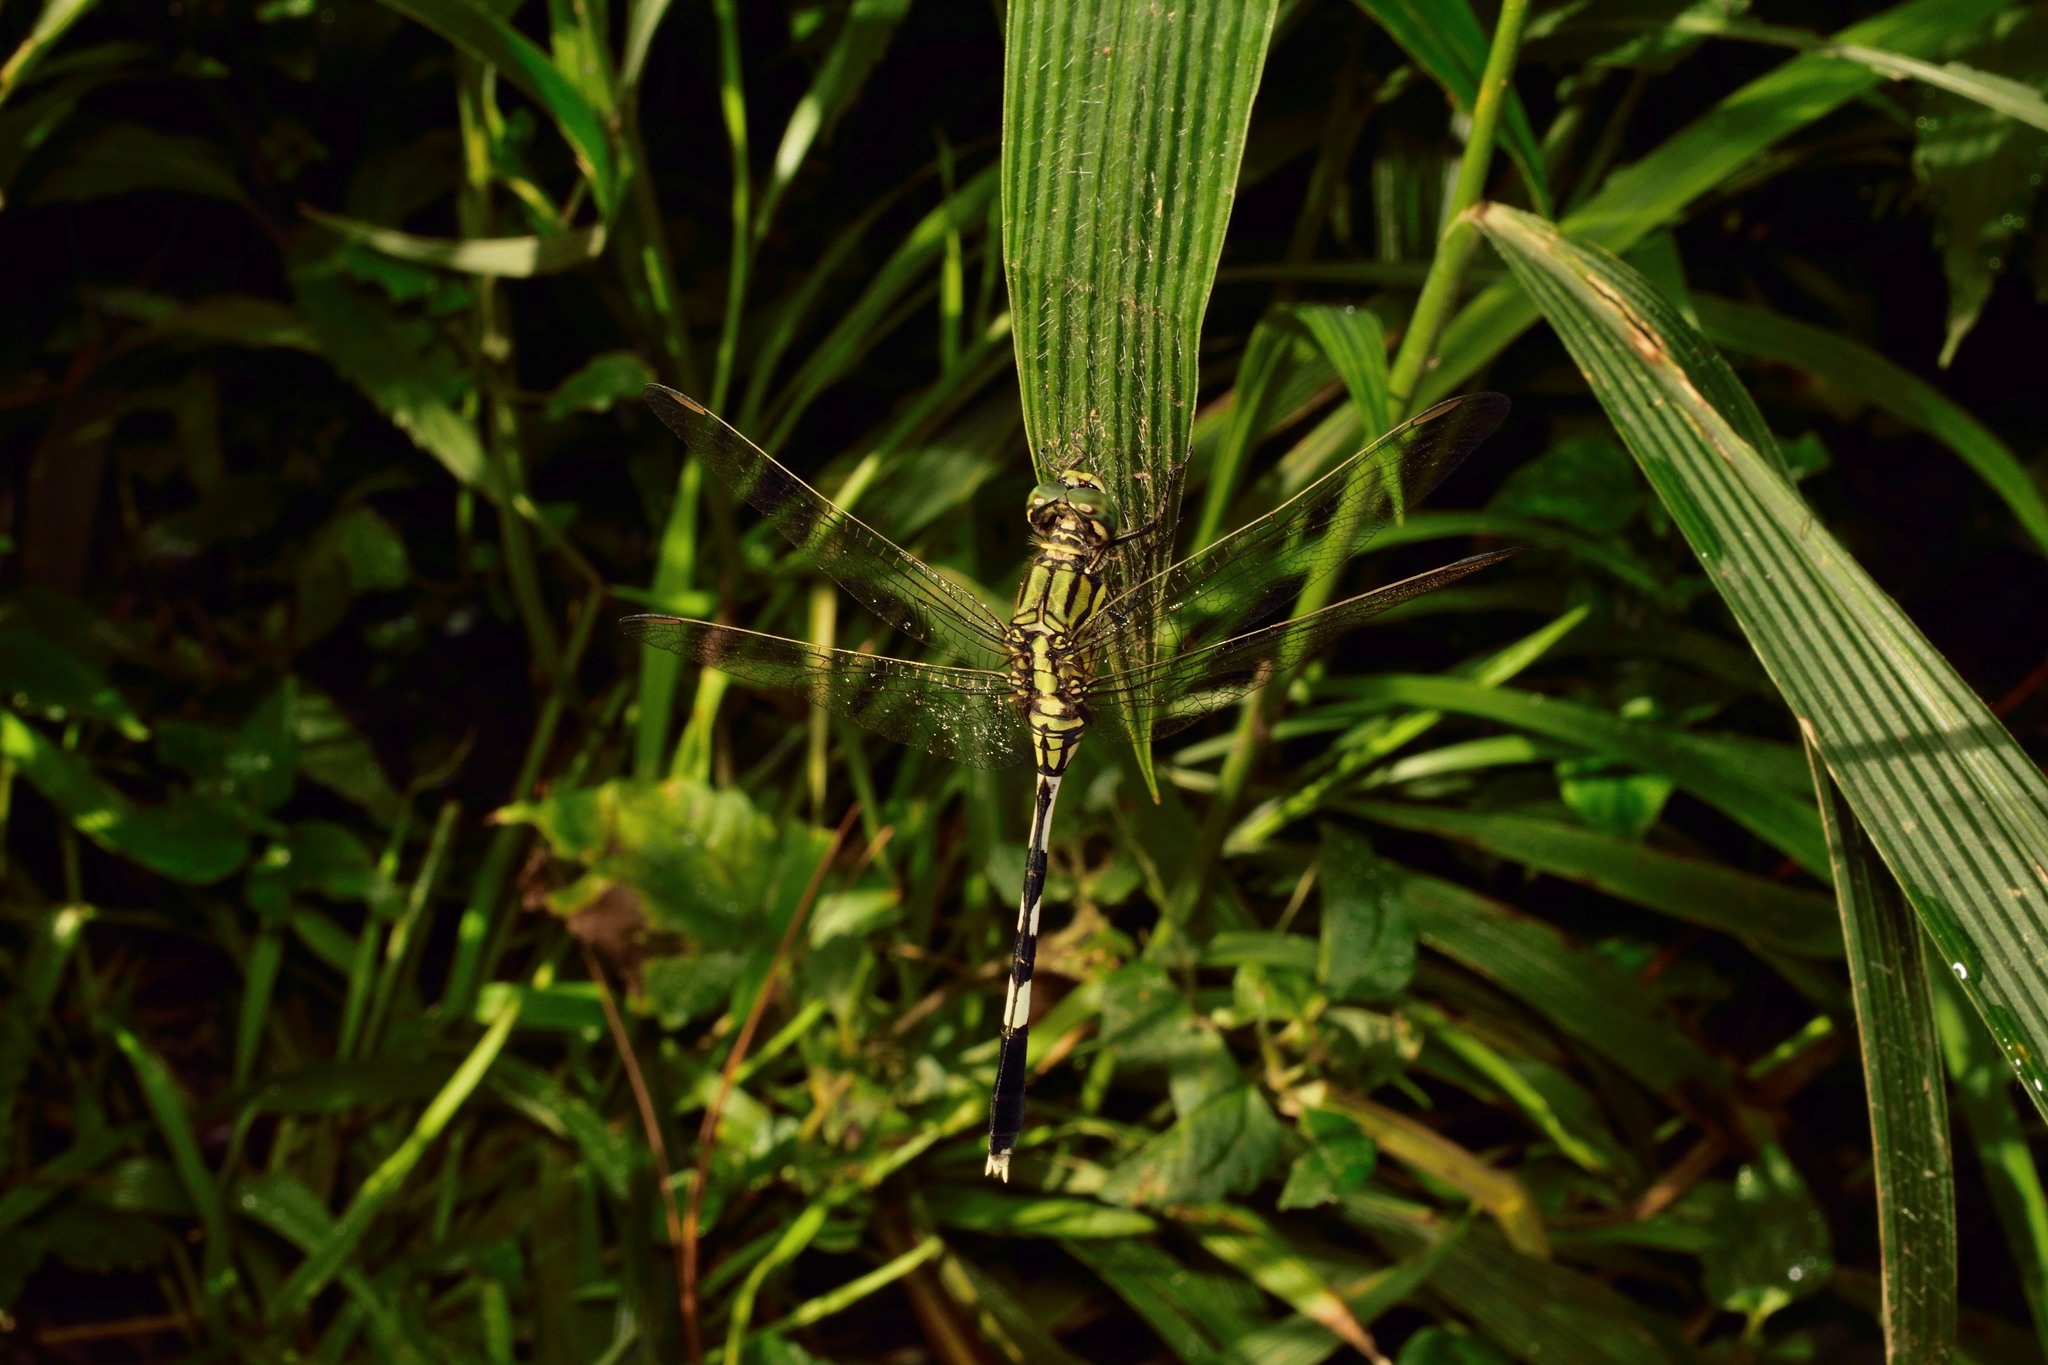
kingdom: Animalia
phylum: Arthropoda
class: Insecta
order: Odonata
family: Libellulidae
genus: Orthetrum
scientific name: Orthetrum sabina
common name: Slender skimmer
